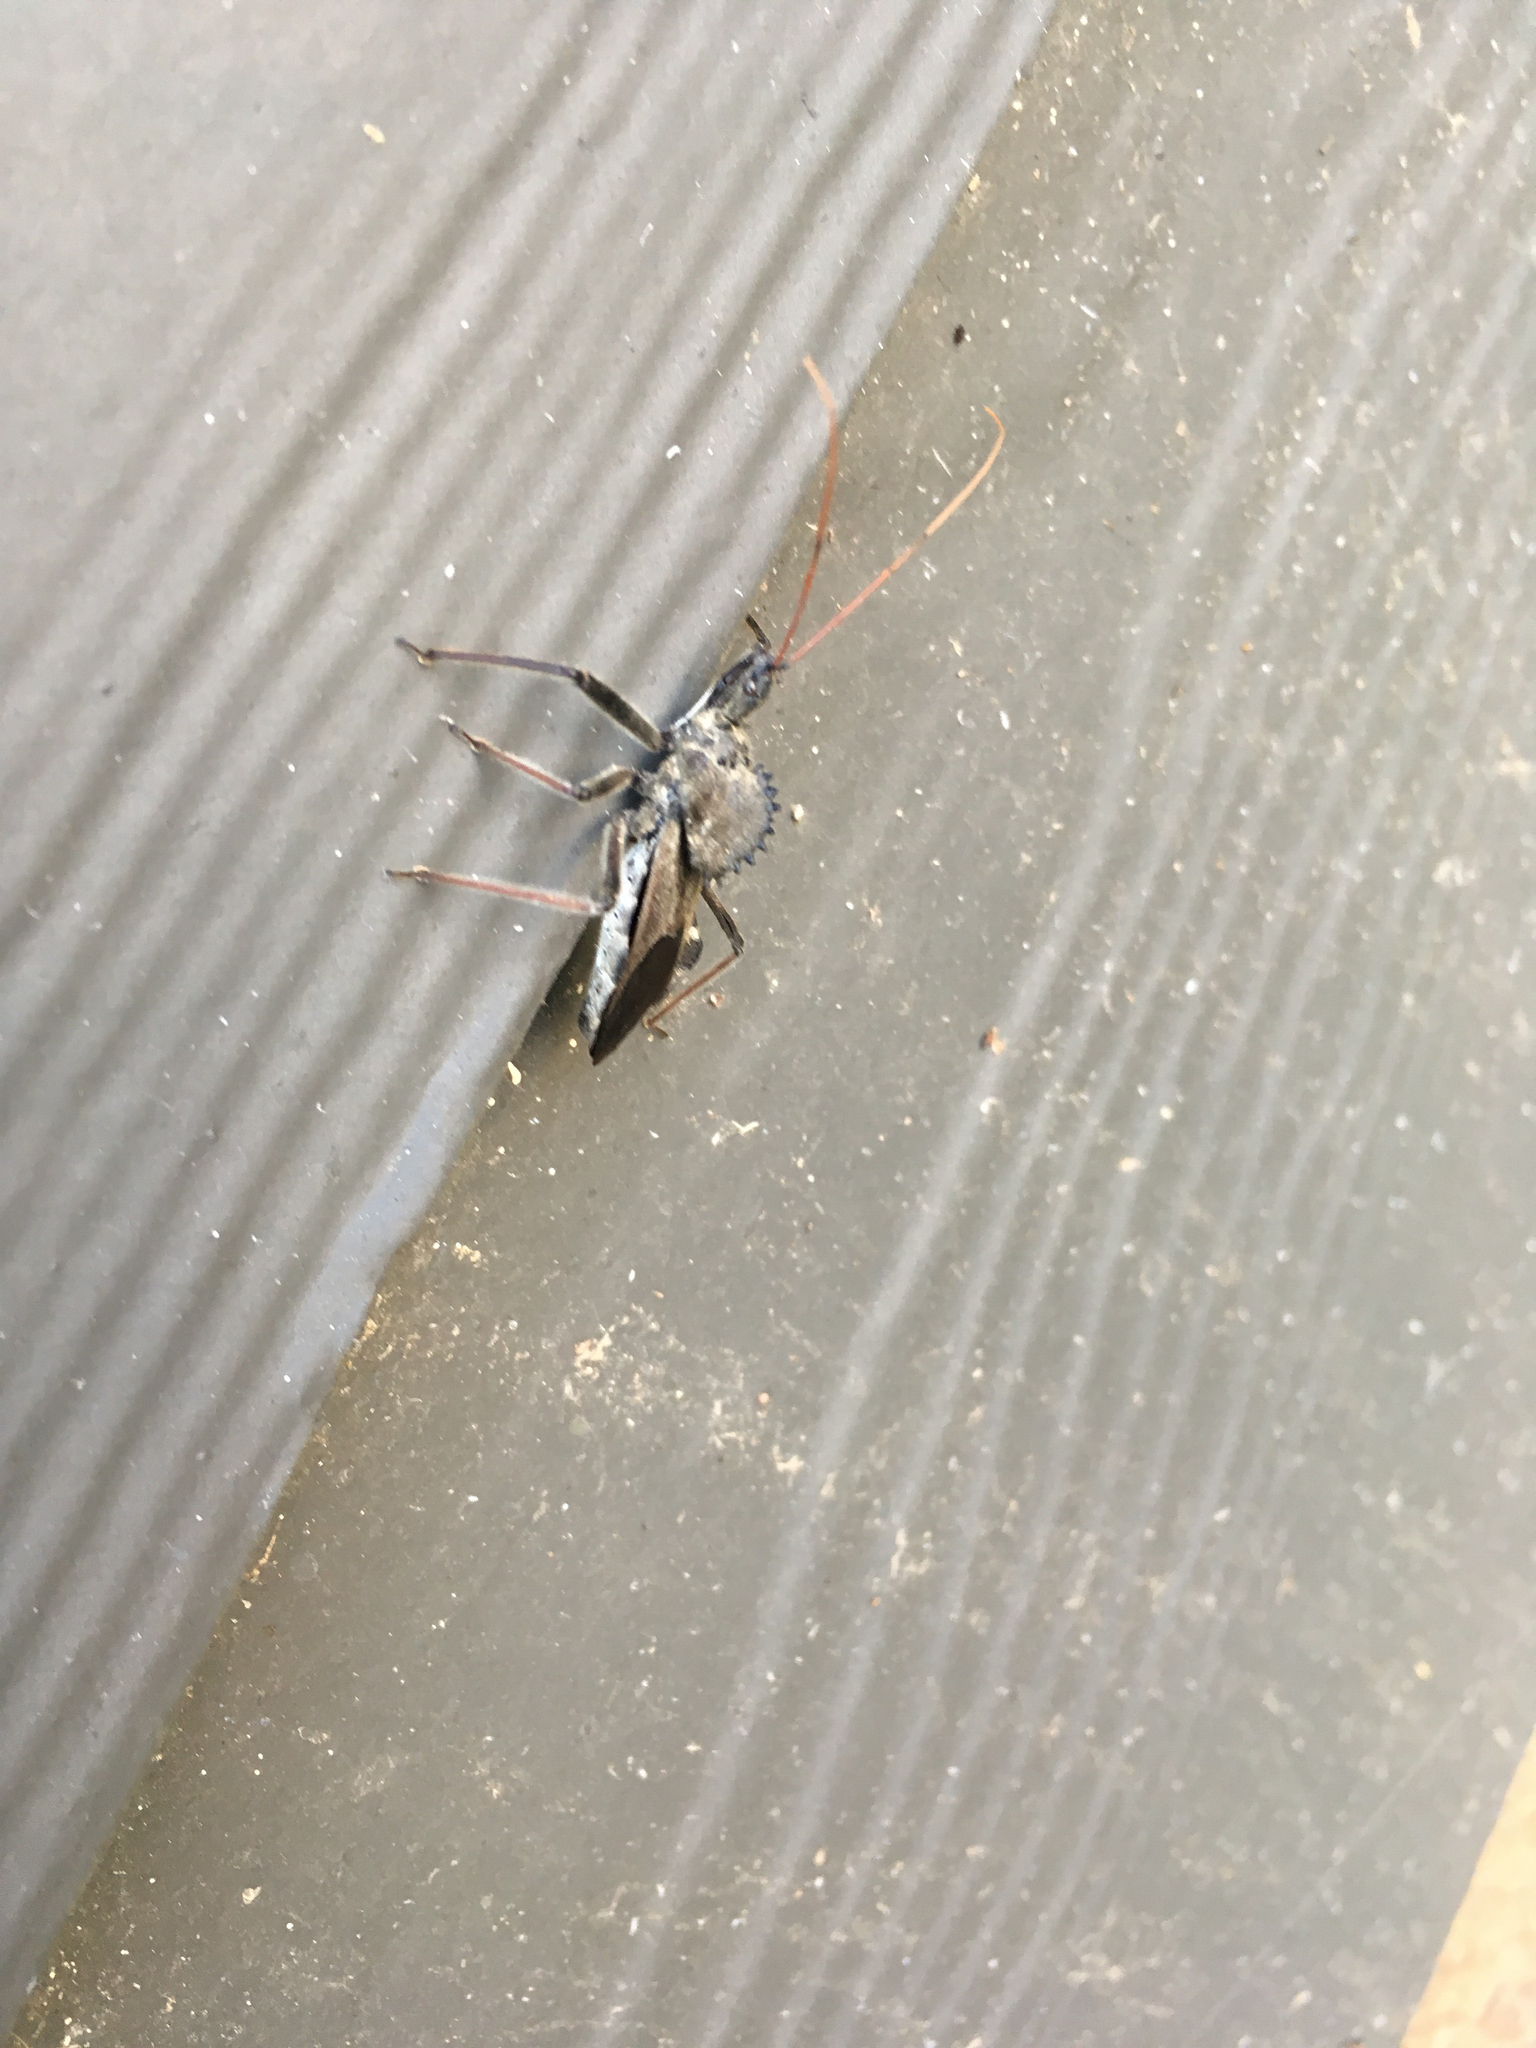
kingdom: Animalia
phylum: Arthropoda
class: Insecta
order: Hemiptera
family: Reduviidae
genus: Arilus
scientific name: Arilus cristatus
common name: North american wheel bug
